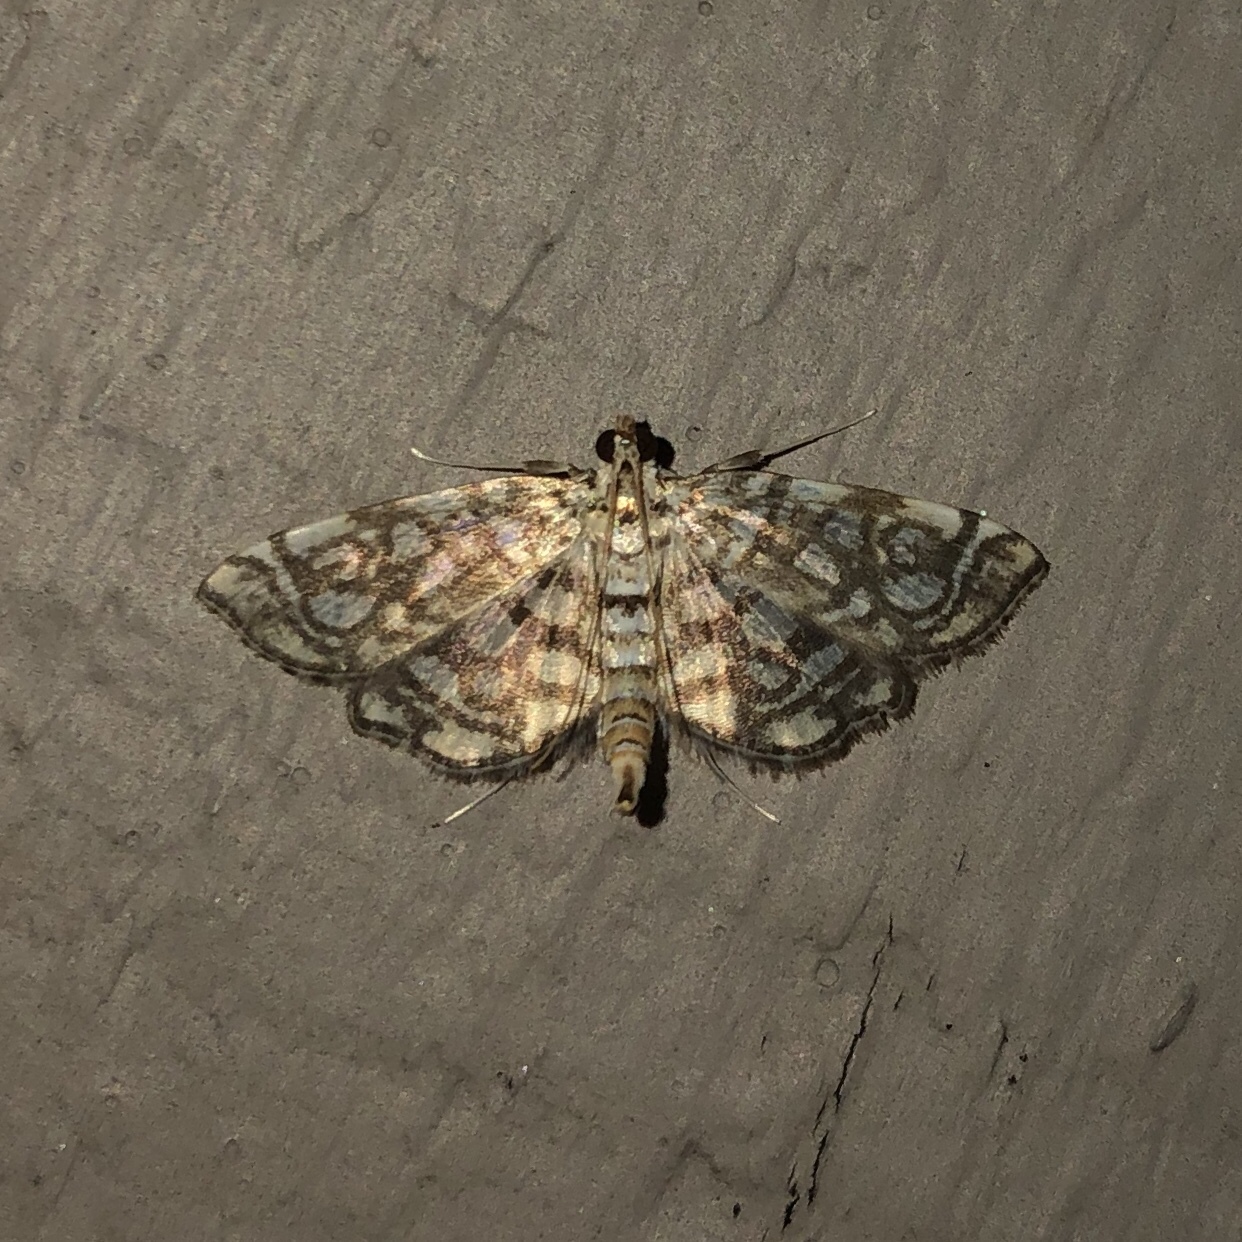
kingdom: Animalia
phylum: Arthropoda
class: Insecta
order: Lepidoptera
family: Crambidae
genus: Lygropia
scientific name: Lygropia rivulalis
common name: Bog lygropia moth
